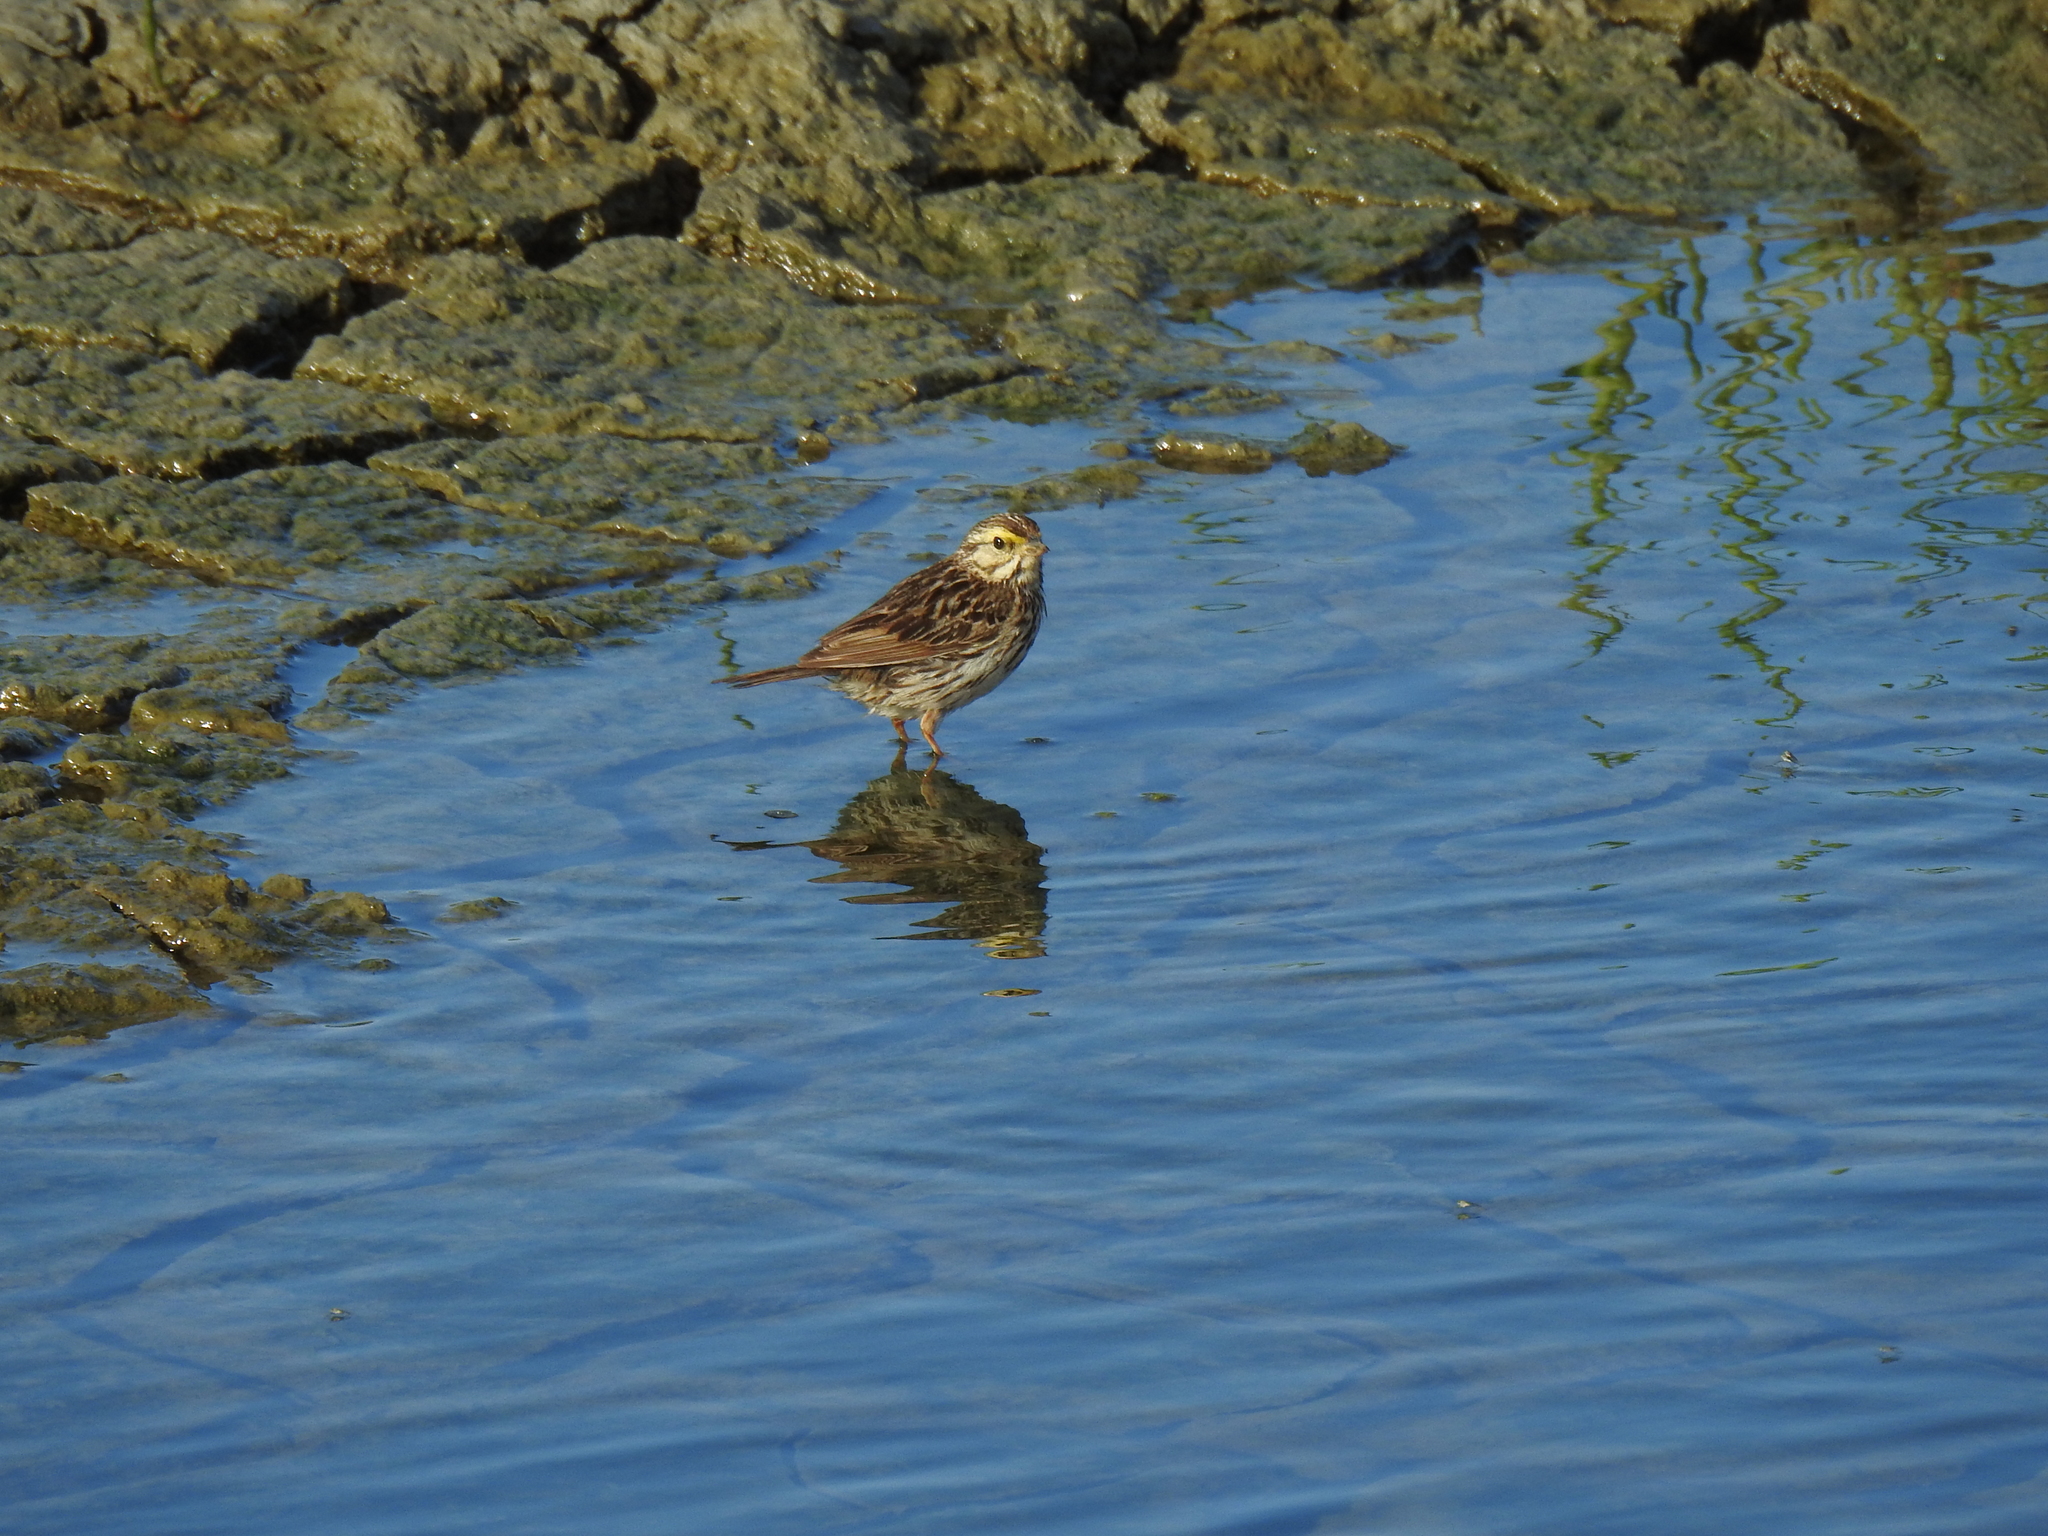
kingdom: Animalia
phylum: Chordata
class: Aves
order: Passeriformes
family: Passerellidae
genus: Passerculus
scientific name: Passerculus sandwichensis
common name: Savannah sparrow
